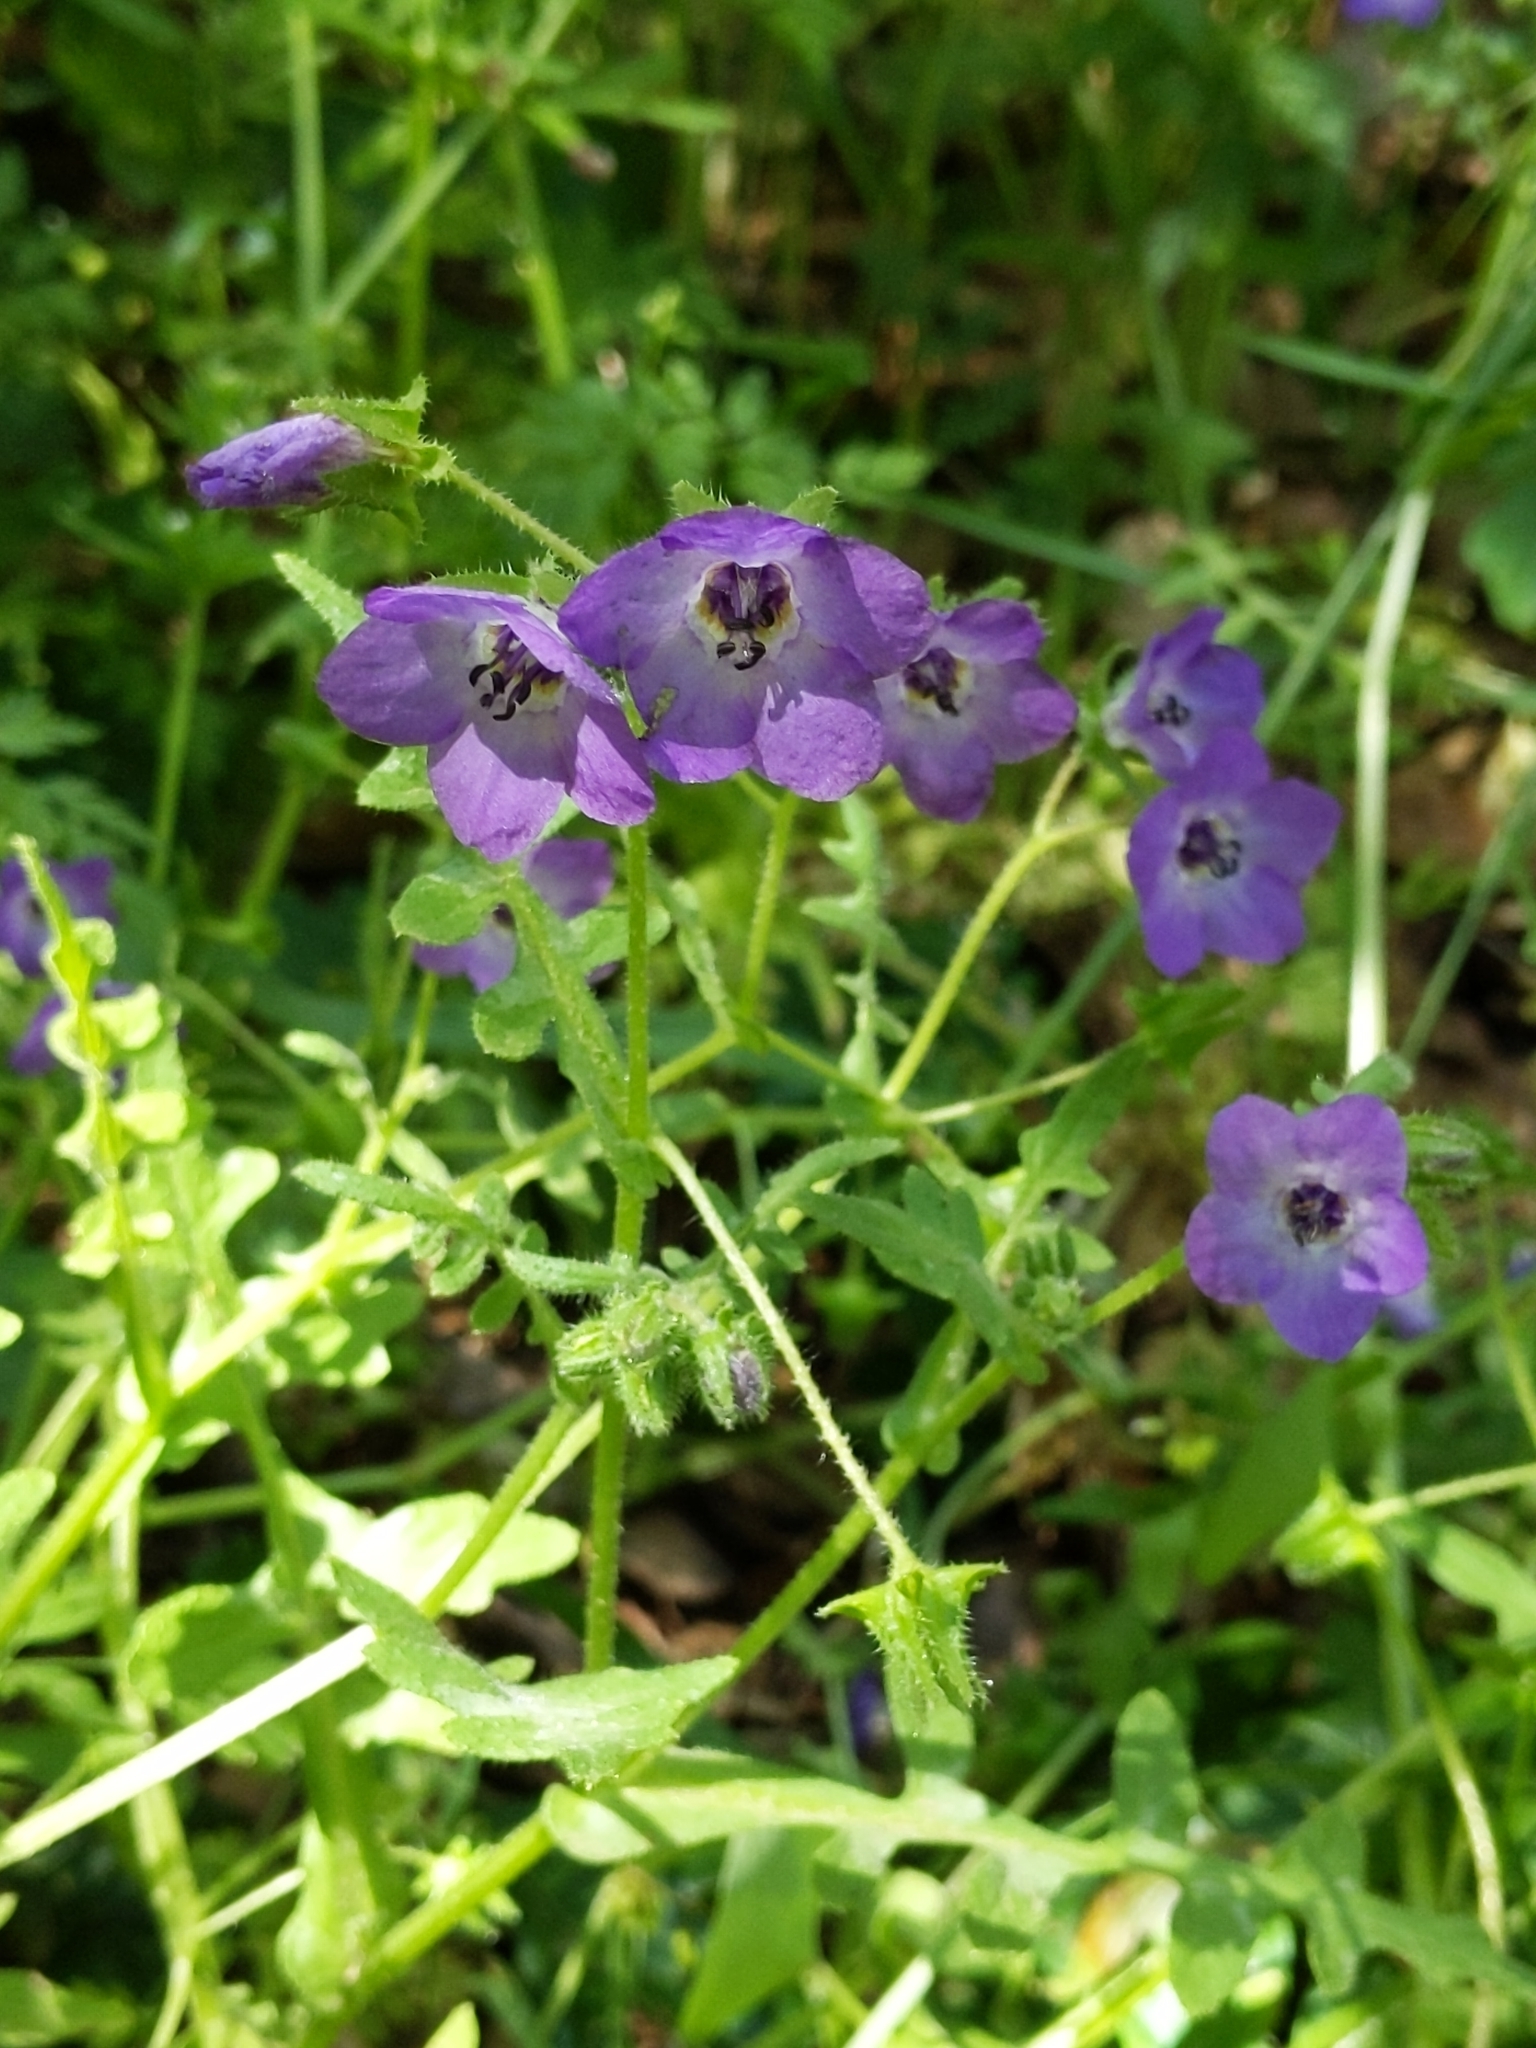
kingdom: Plantae
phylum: Tracheophyta
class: Magnoliopsida
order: Boraginales
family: Hydrophyllaceae
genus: Pholistoma
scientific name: Pholistoma auritum
